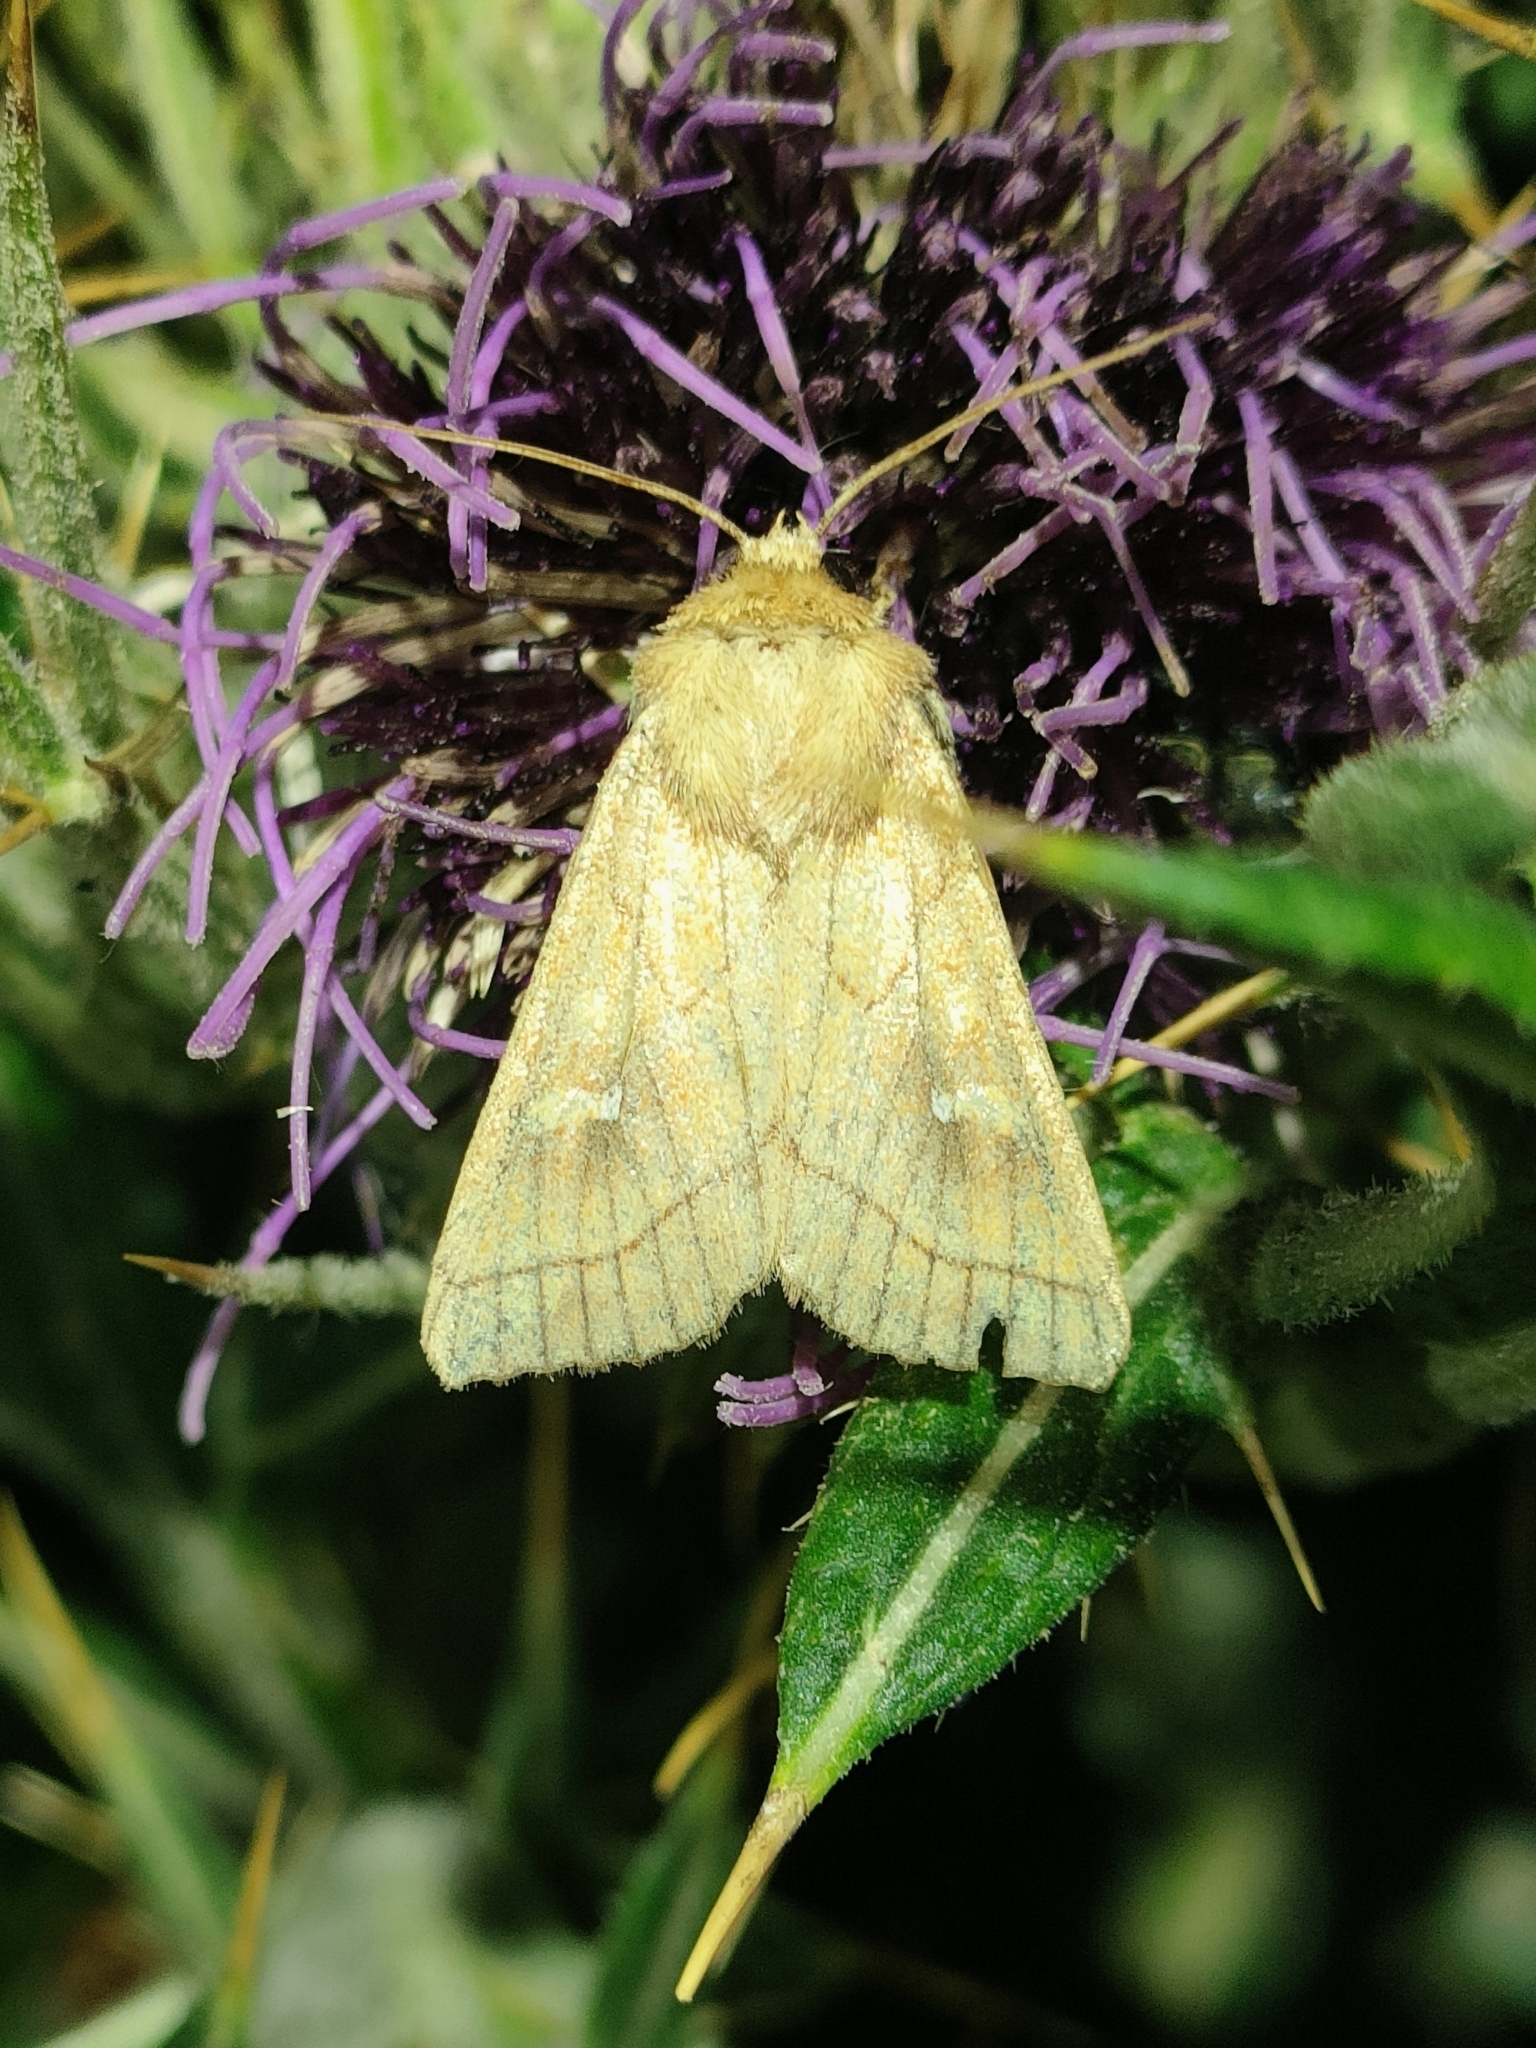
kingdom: Animalia
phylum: Arthropoda
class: Insecta
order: Lepidoptera
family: Noctuidae
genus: Mythimna
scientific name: Mythimna conigera
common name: Brown-line bright-eye
